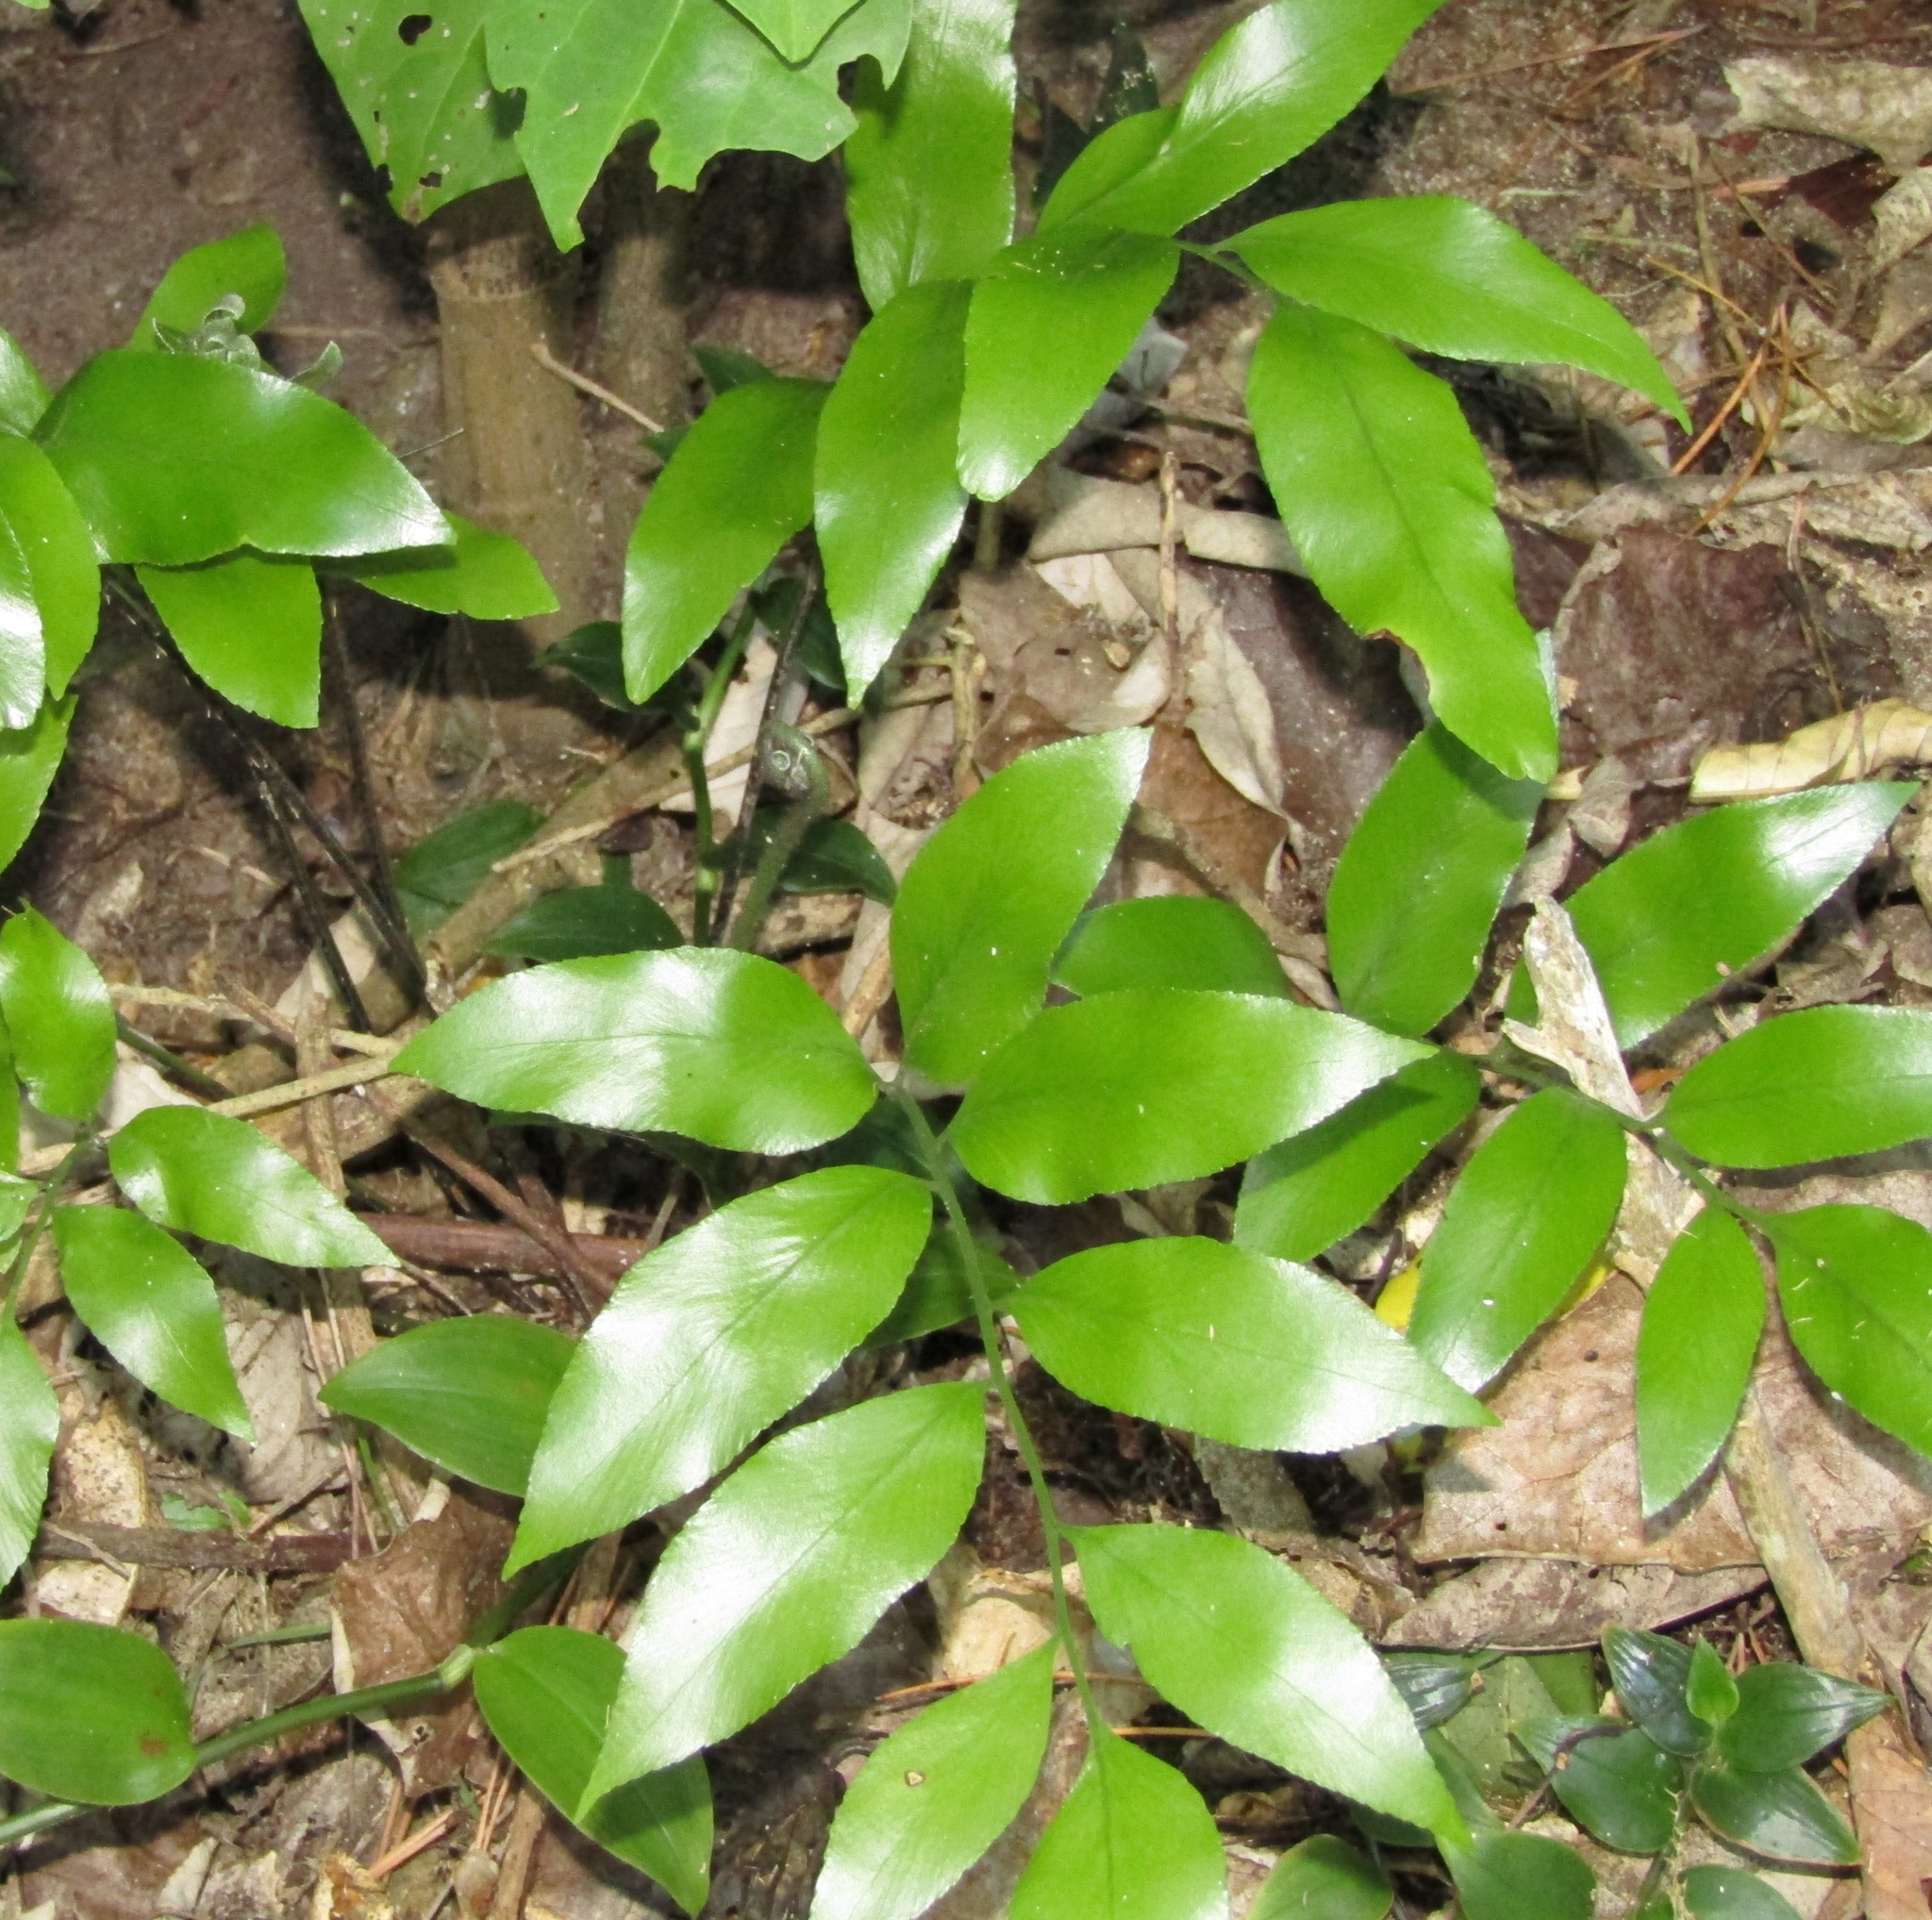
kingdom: Plantae
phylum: Tracheophyta
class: Polypodiopsida
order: Polypodiales
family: Aspleniaceae
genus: Asplenium
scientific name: Asplenium oblongifolium
